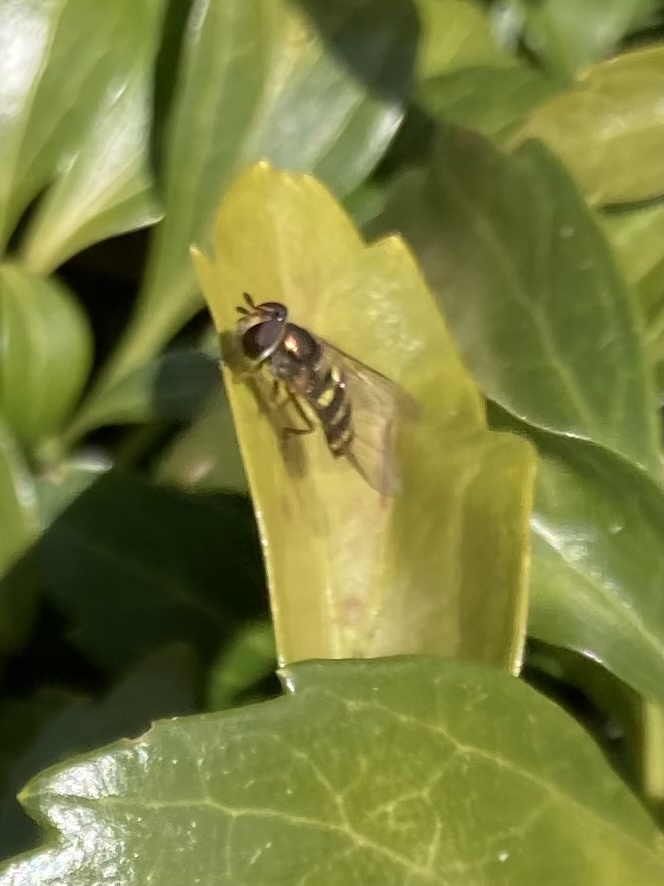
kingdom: Animalia
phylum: Arthropoda
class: Insecta
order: Diptera
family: Syrphidae
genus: Eupeodes
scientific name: Eupeodes
